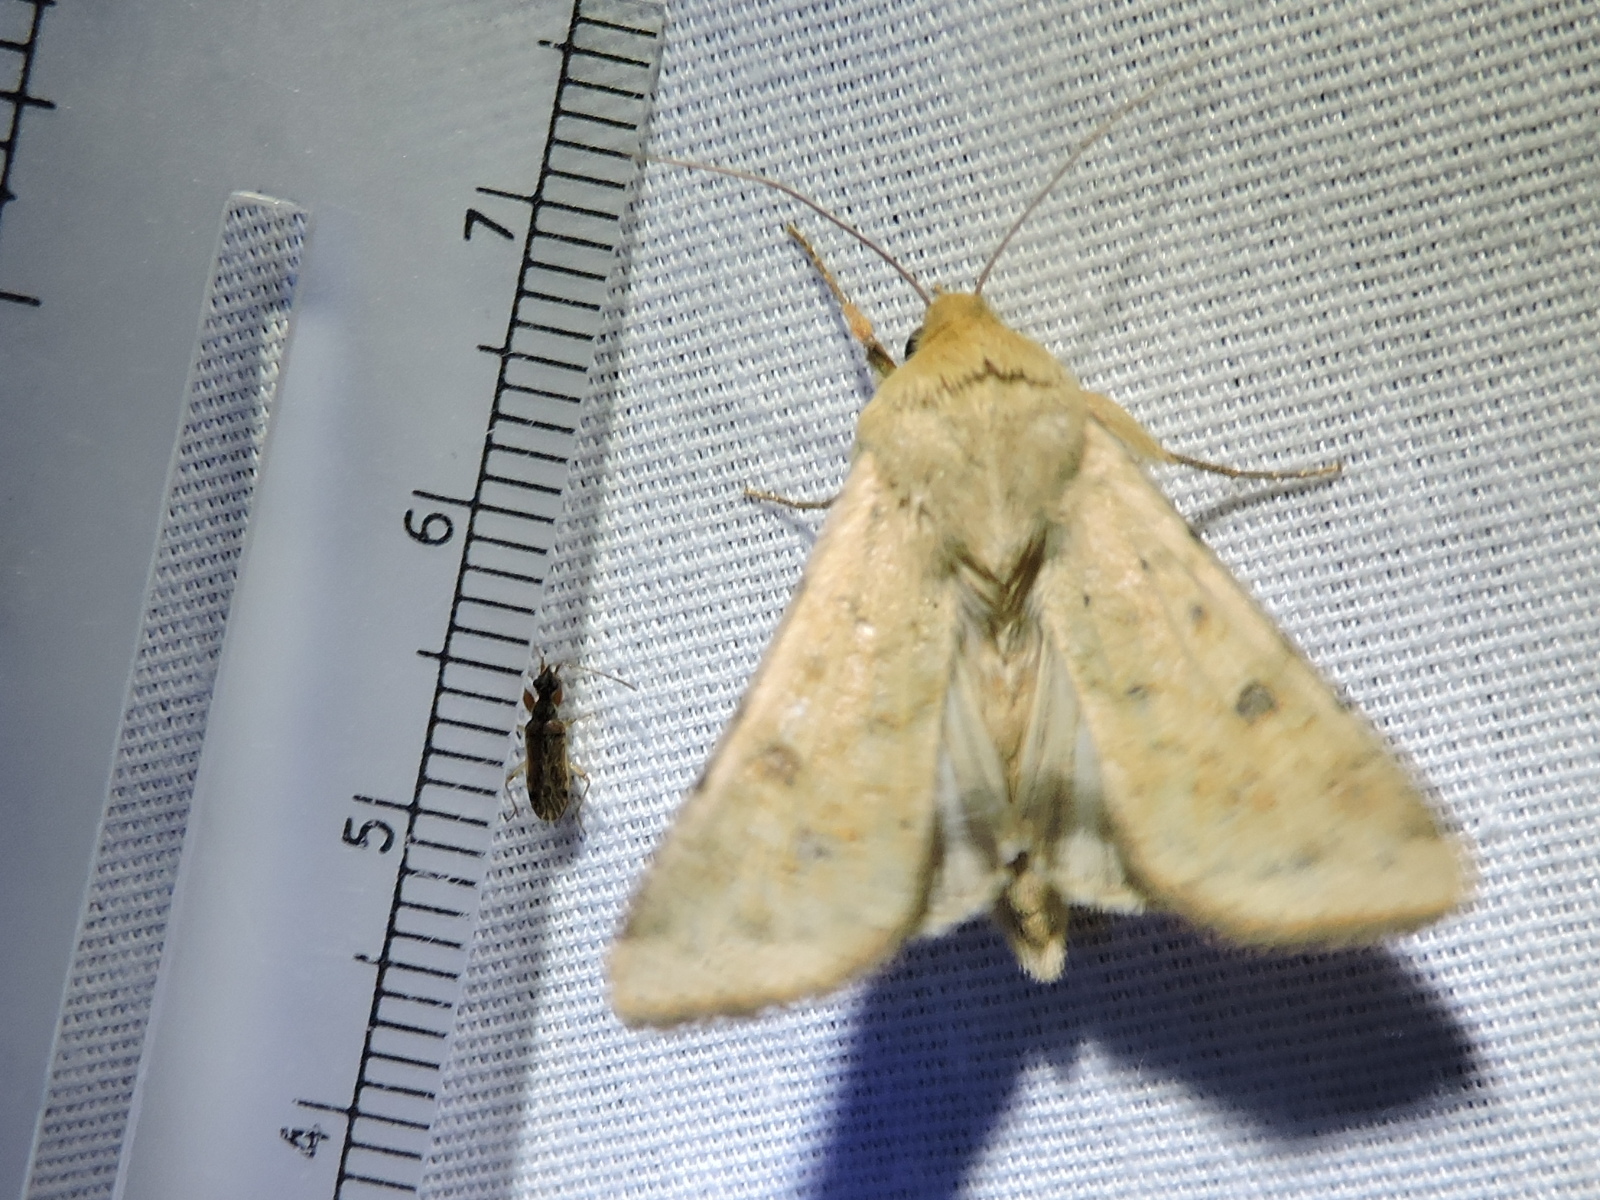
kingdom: Animalia
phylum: Arthropoda
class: Insecta
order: Lepidoptera
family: Noctuidae
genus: Helicoverpa
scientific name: Helicoverpa zea
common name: Bollworm
